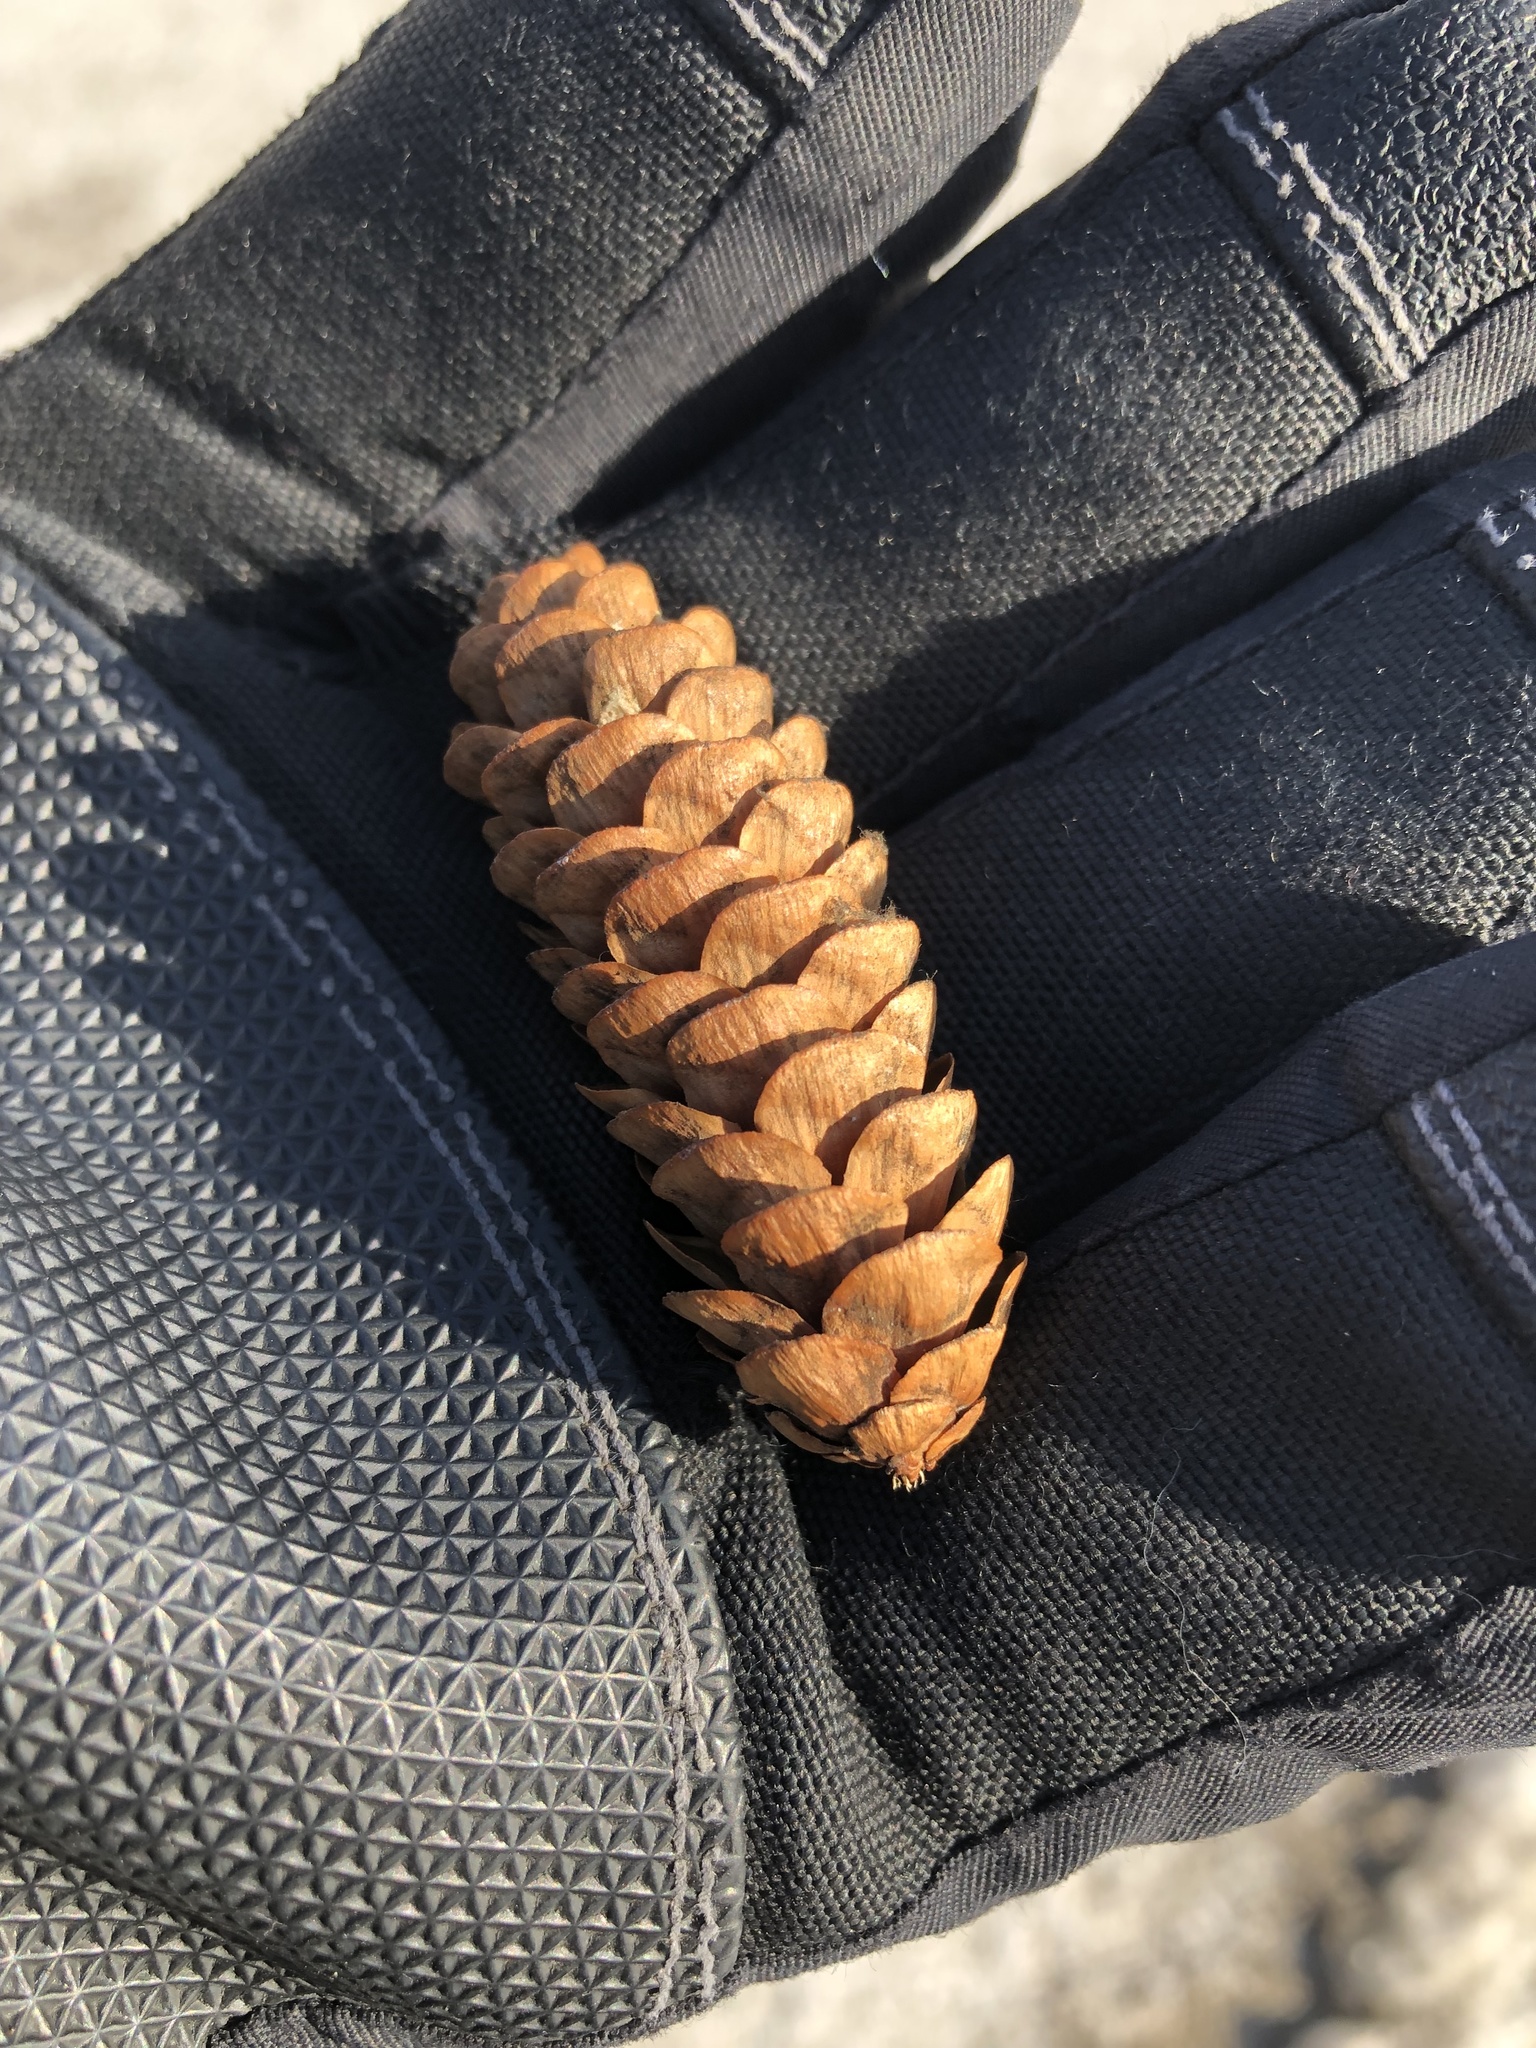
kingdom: Plantae
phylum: Tracheophyta
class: Pinopsida
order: Pinales
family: Pinaceae
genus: Picea
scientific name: Picea glauca
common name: White spruce
